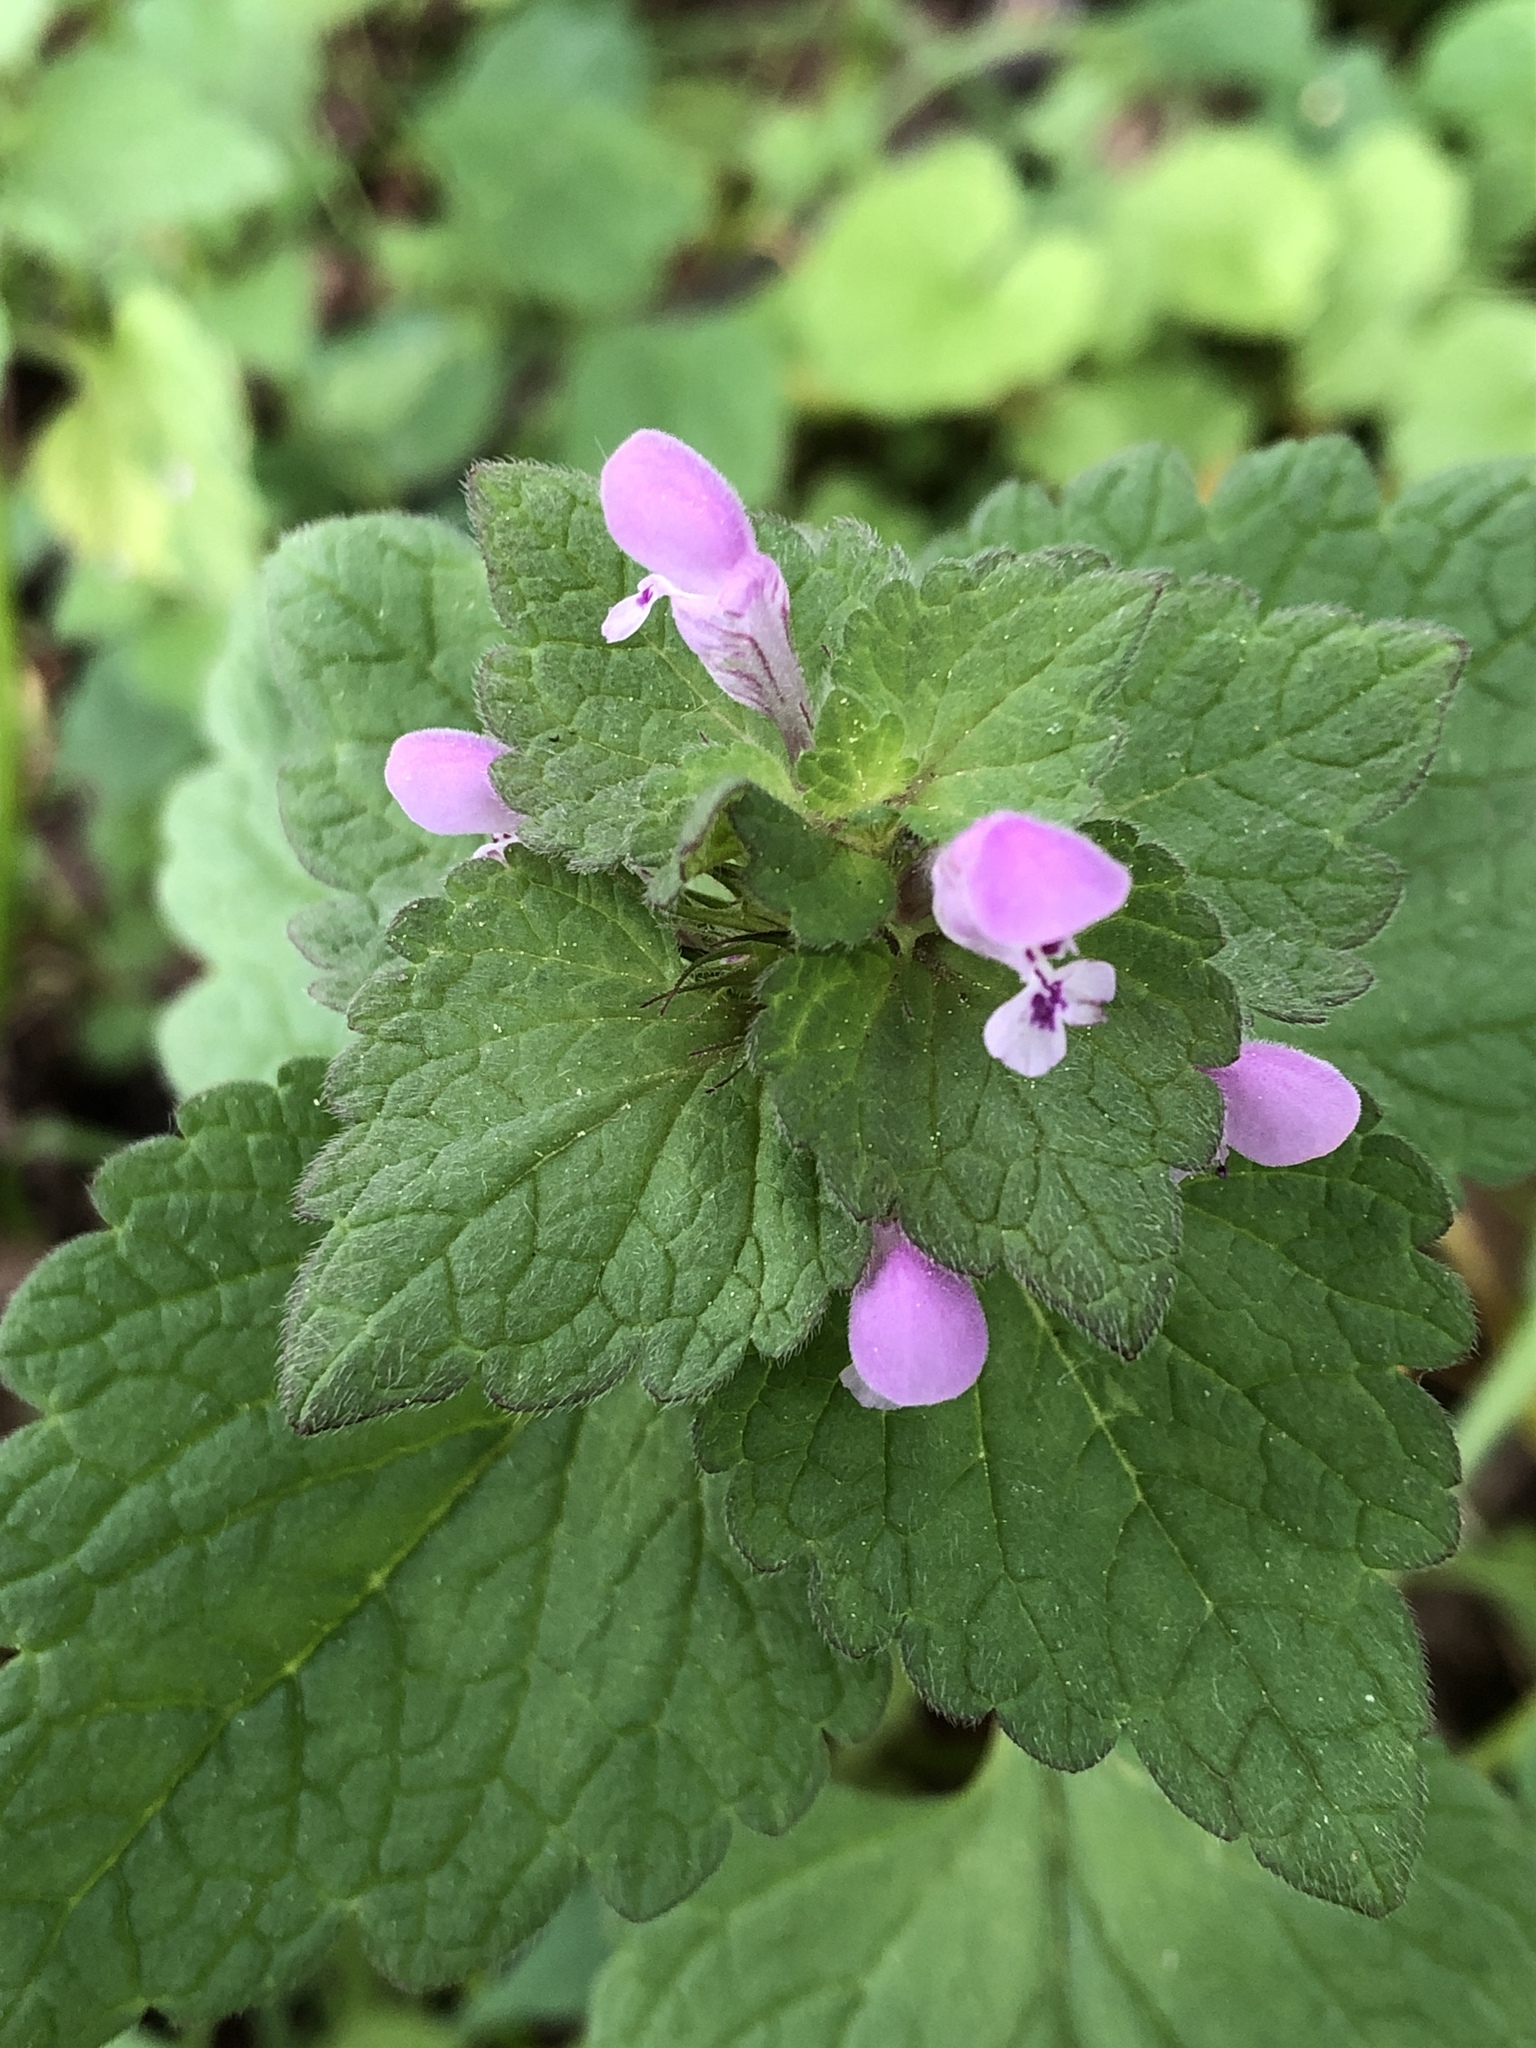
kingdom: Plantae
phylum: Tracheophyta
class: Magnoliopsida
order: Lamiales
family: Lamiaceae
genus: Lamium
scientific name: Lamium purpureum
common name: Red dead-nettle
